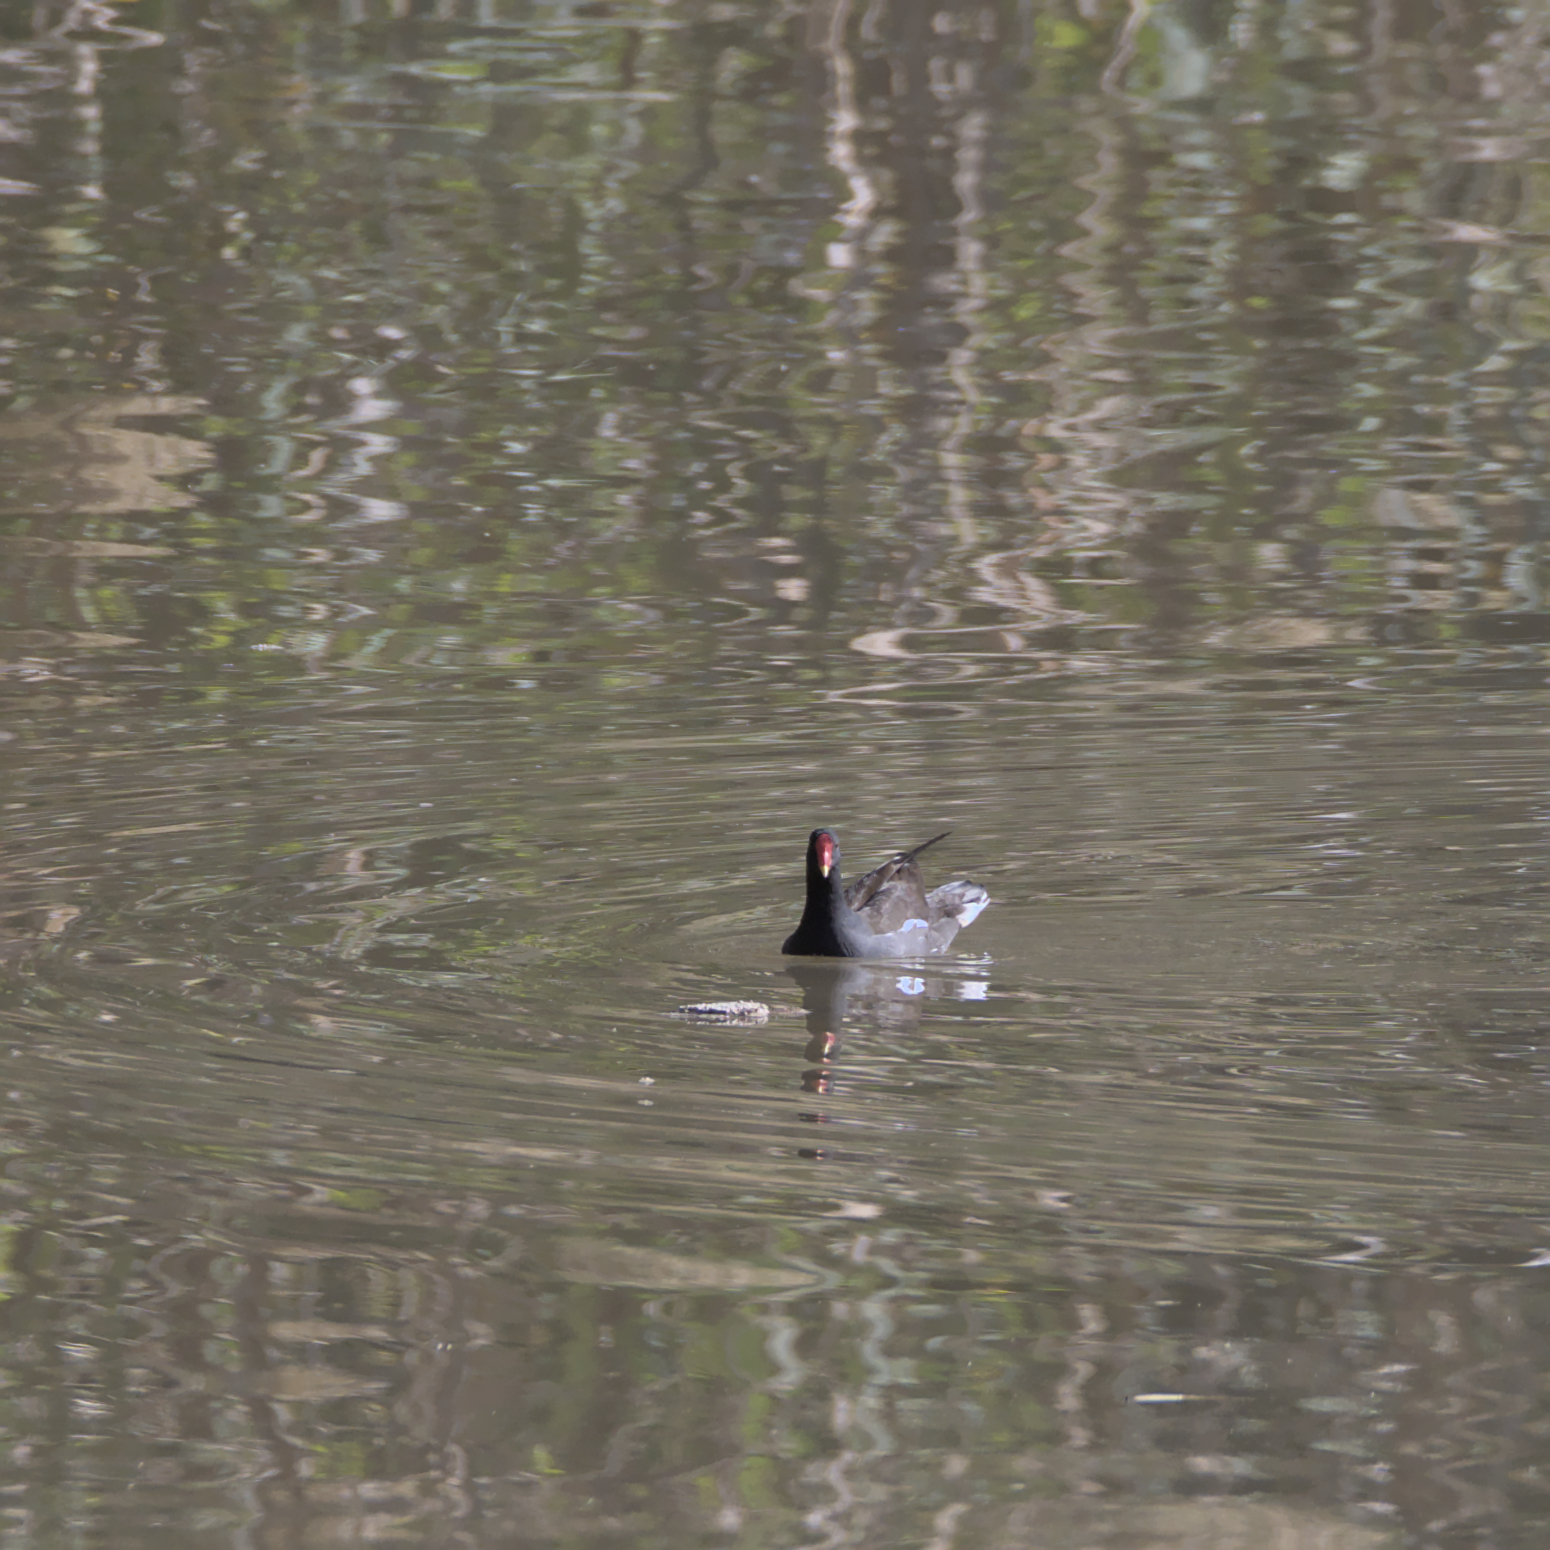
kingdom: Animalia
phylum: Chordata
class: Aves
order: Gruiformes
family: Rallidae
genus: Gallinula
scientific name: Gallinula chloropus
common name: Common moorhen
